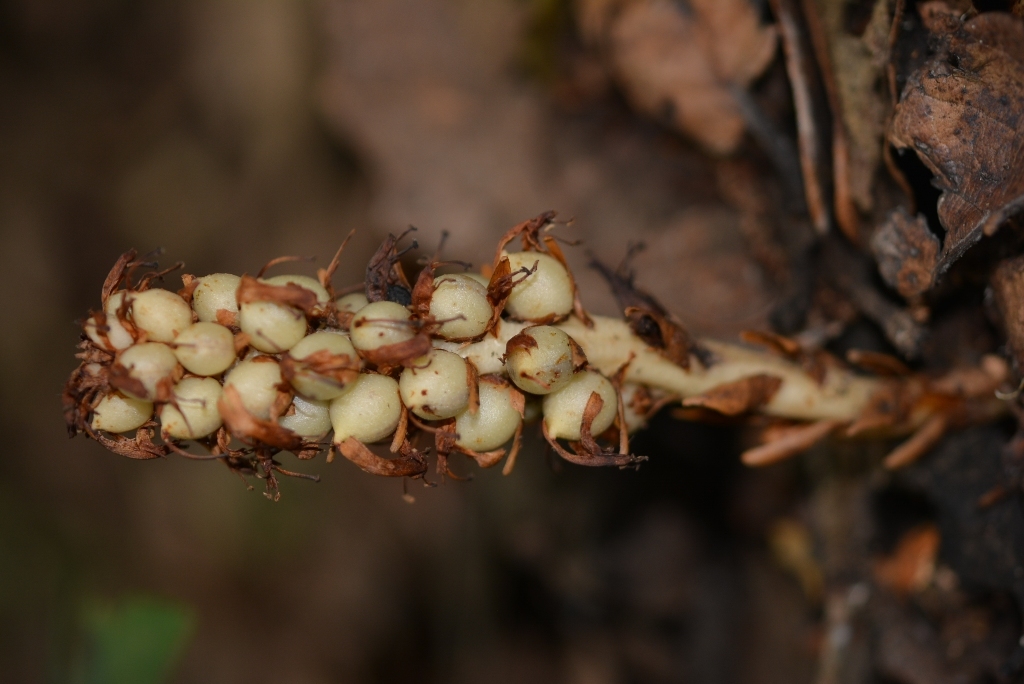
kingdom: Plantae
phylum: Tracheophyta
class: Magnoliopsida
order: Lamiales
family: Orobanchaceae
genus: Conopholis
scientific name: Conopholis alpina
